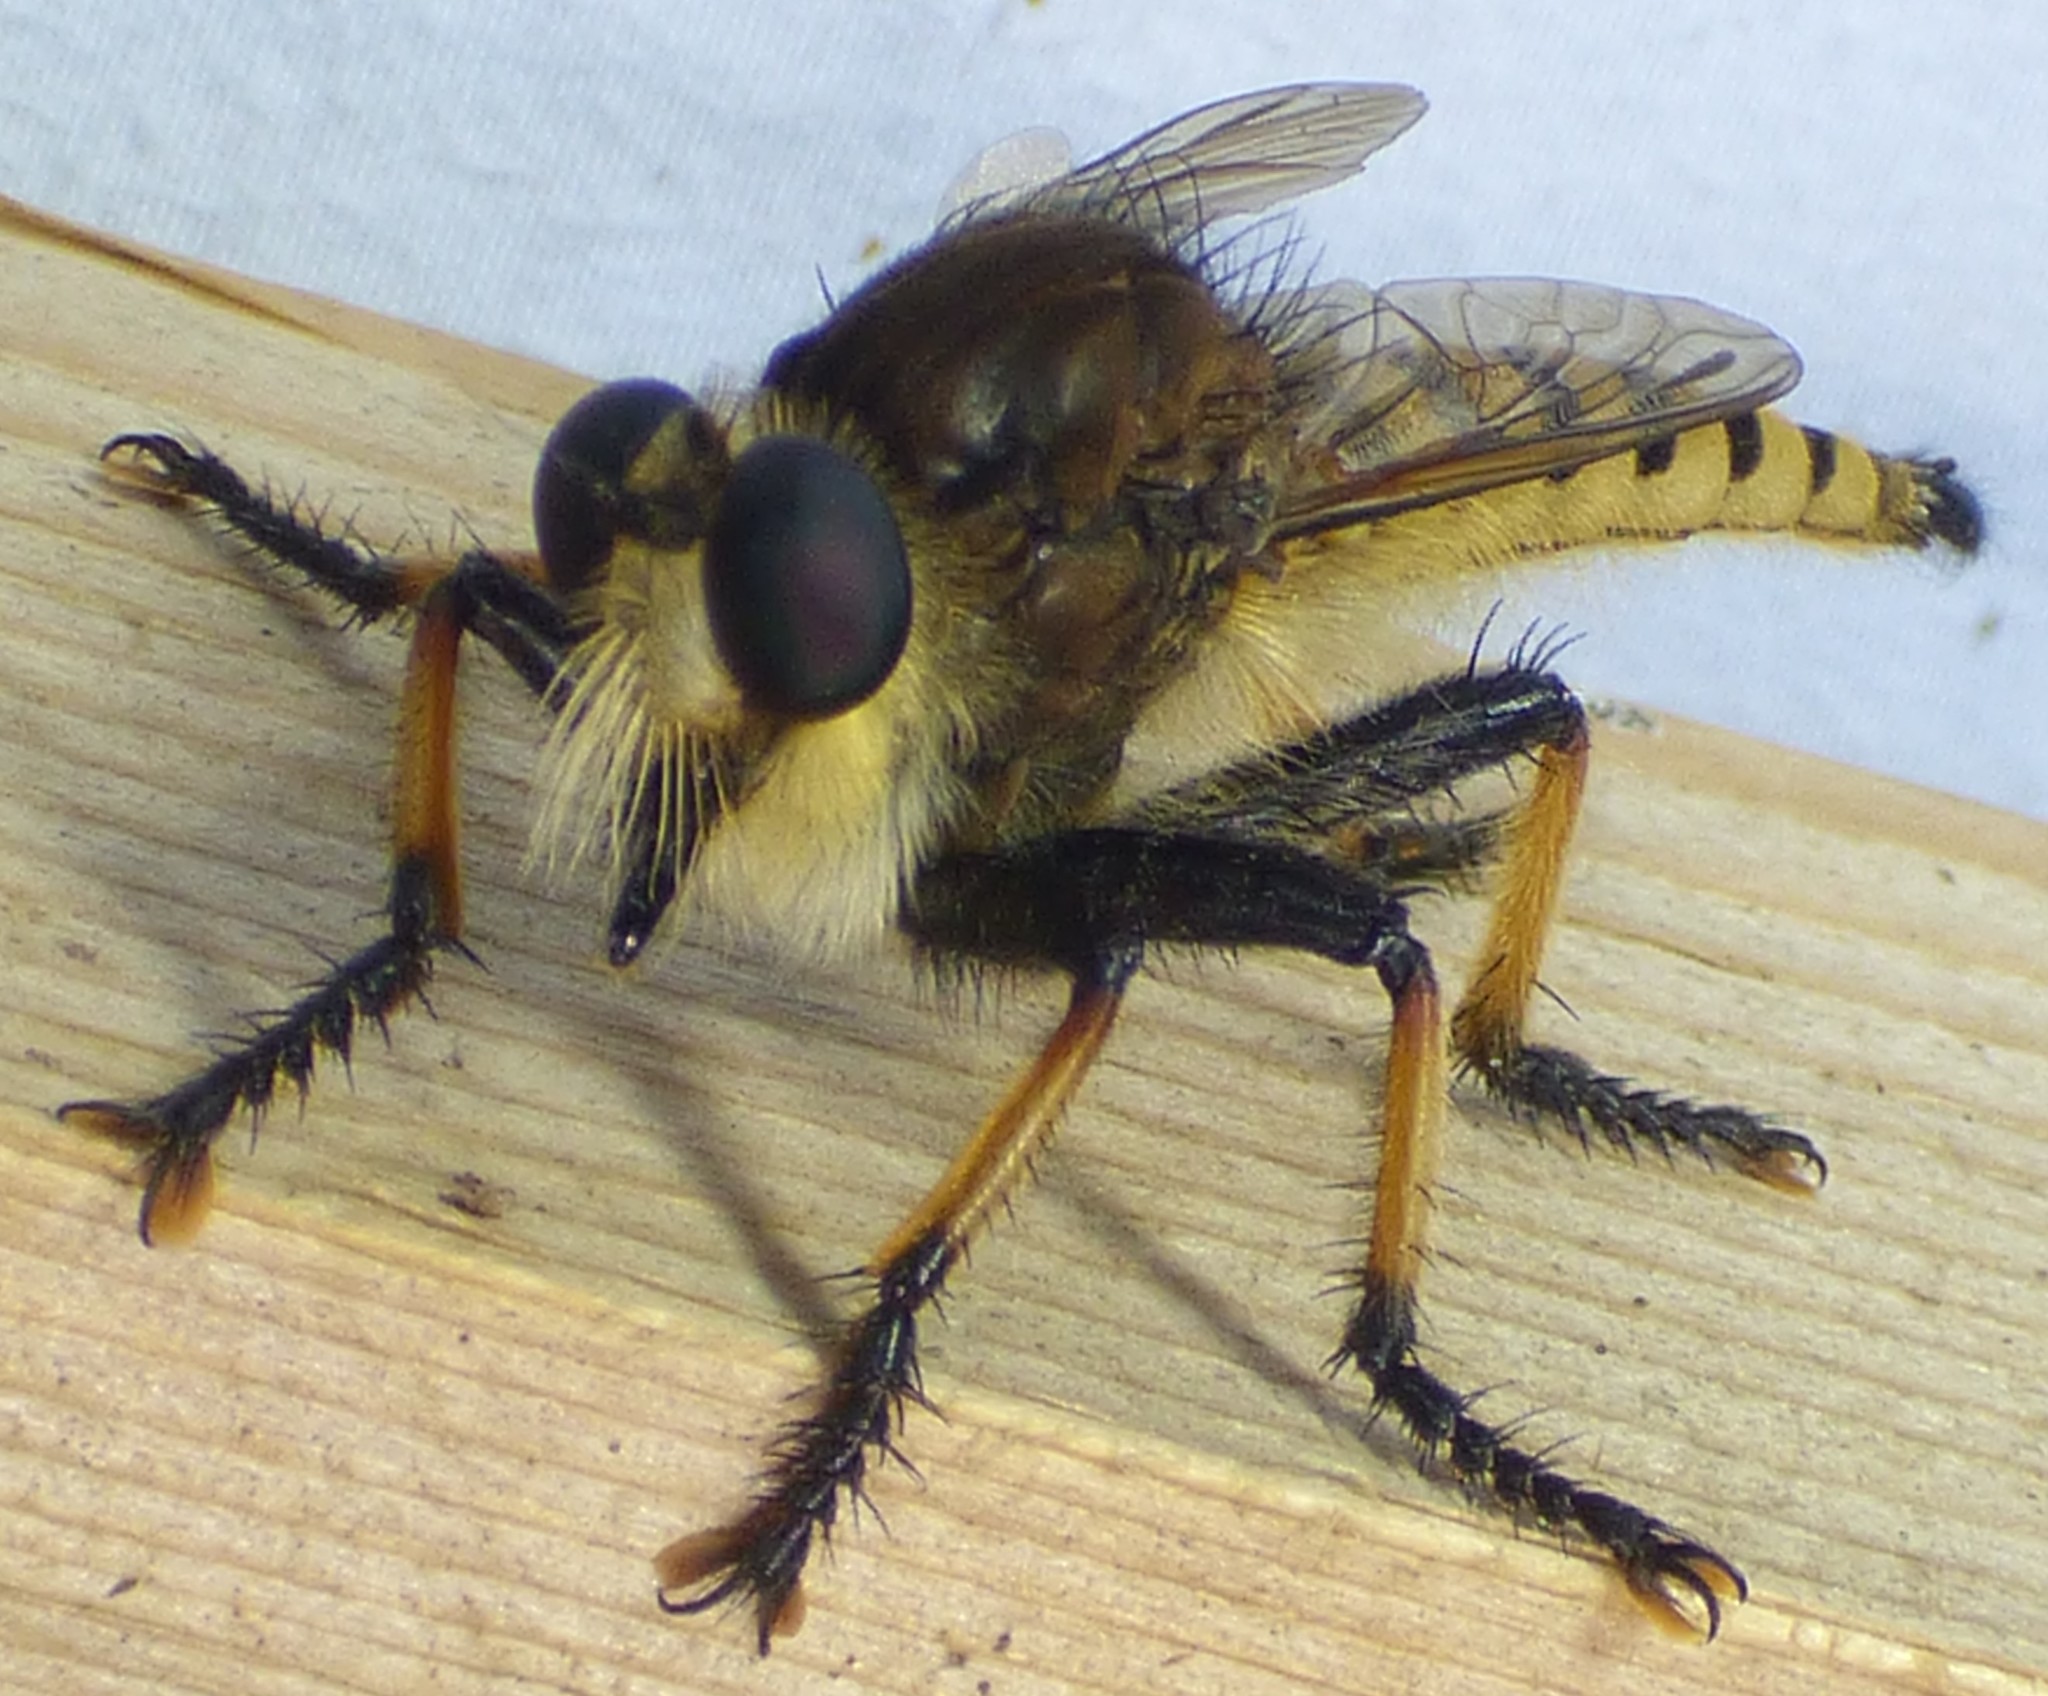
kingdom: Animalia
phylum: Arthropoda
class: Insecta
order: Diptera
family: Asilidae
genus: Promachus
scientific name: Promachus rufipes
